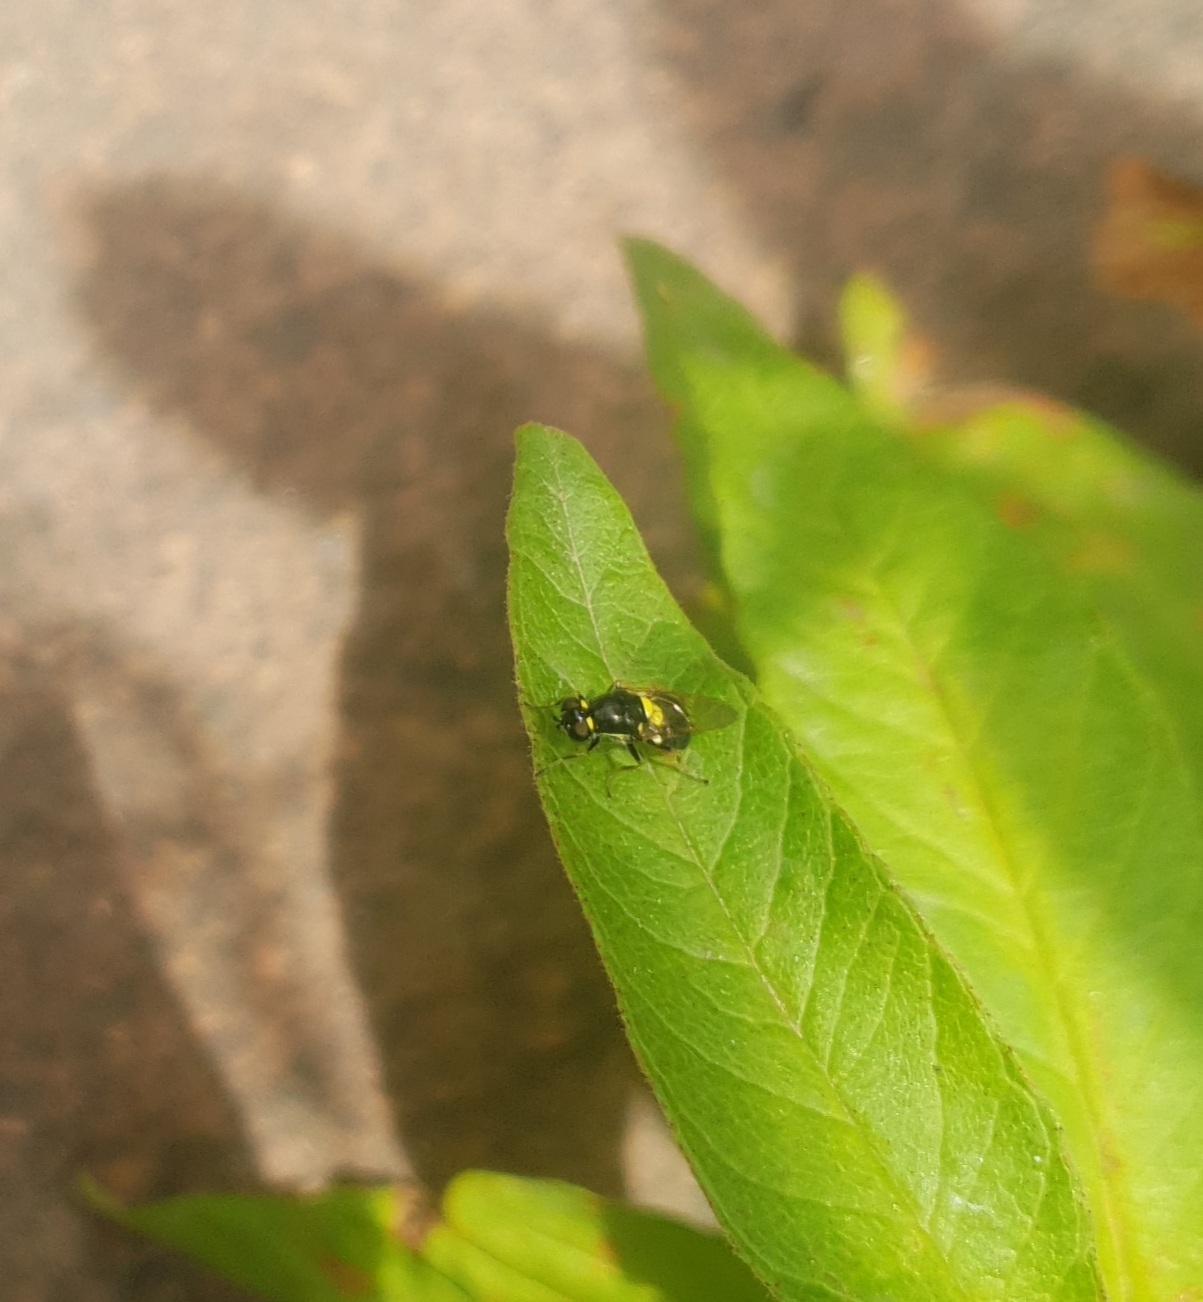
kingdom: Animalia
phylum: Arthropoda
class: Insecta
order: Diptera
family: Stratiomyidae
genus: Oxycera
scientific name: Oxycera leonina
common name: Twin-spotted major
